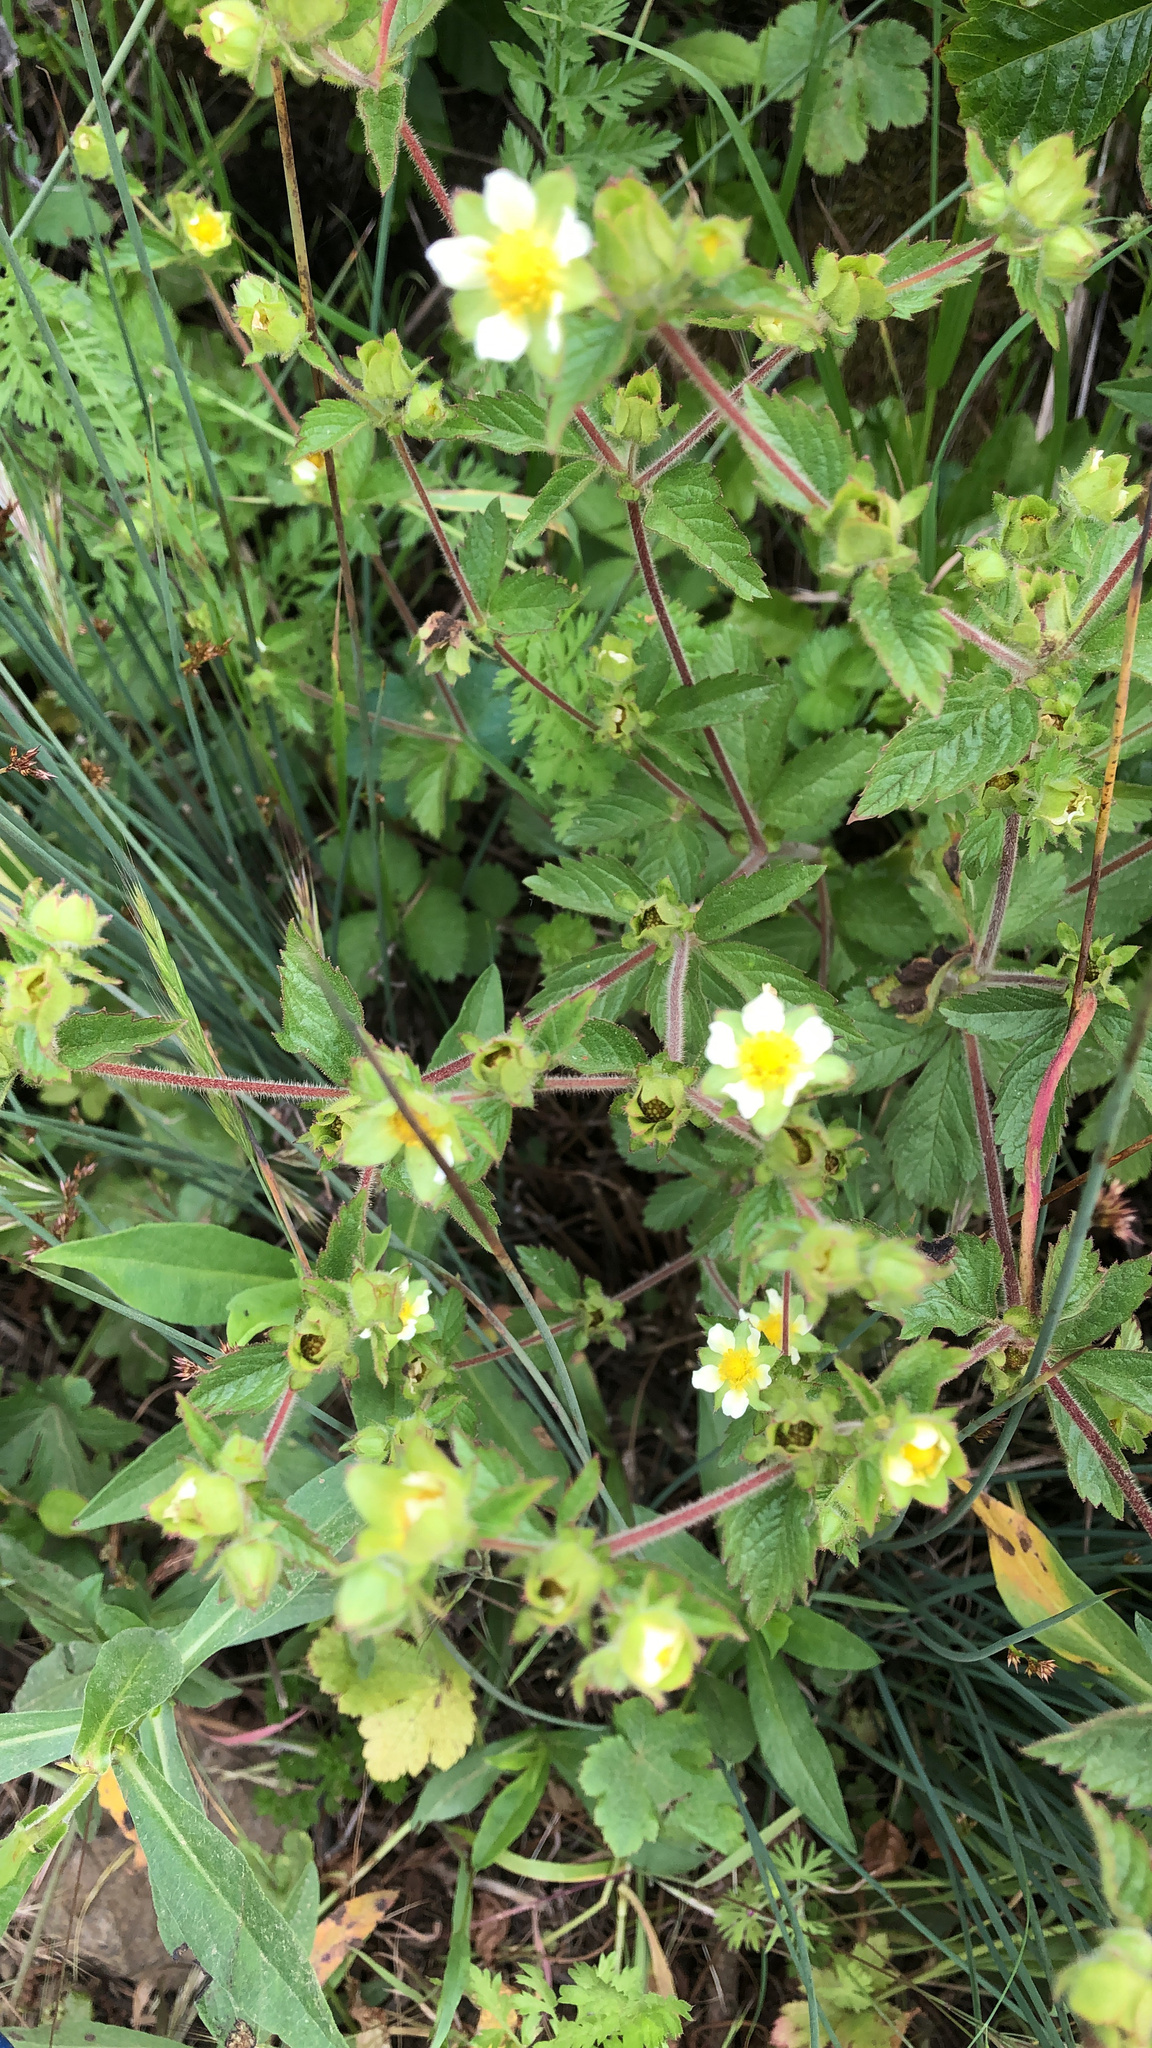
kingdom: Plantae
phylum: Tracheophyta
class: Magnoliopsida
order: Rosales
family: Rosaceae
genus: Drymocallis
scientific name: Drymocallis glandulosa
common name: Sticky cinquefoil
